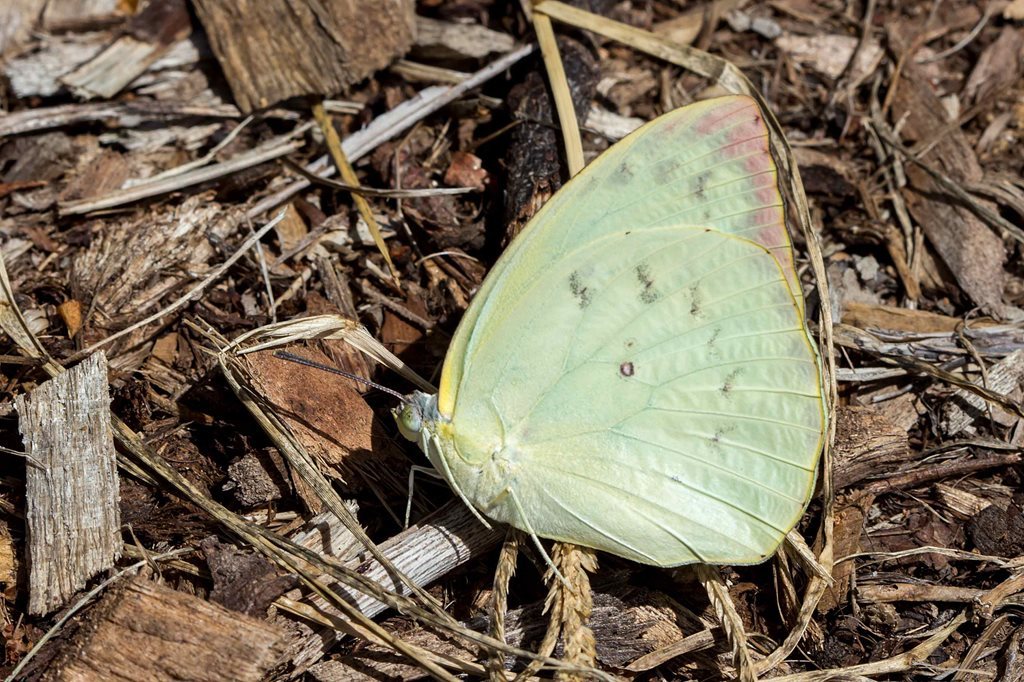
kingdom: Animalia
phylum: Arthropoda
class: Insecta
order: Lepidoptera
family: Pieridae
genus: Catopsilia
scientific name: Catopsilia pomona
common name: Common emigrant
